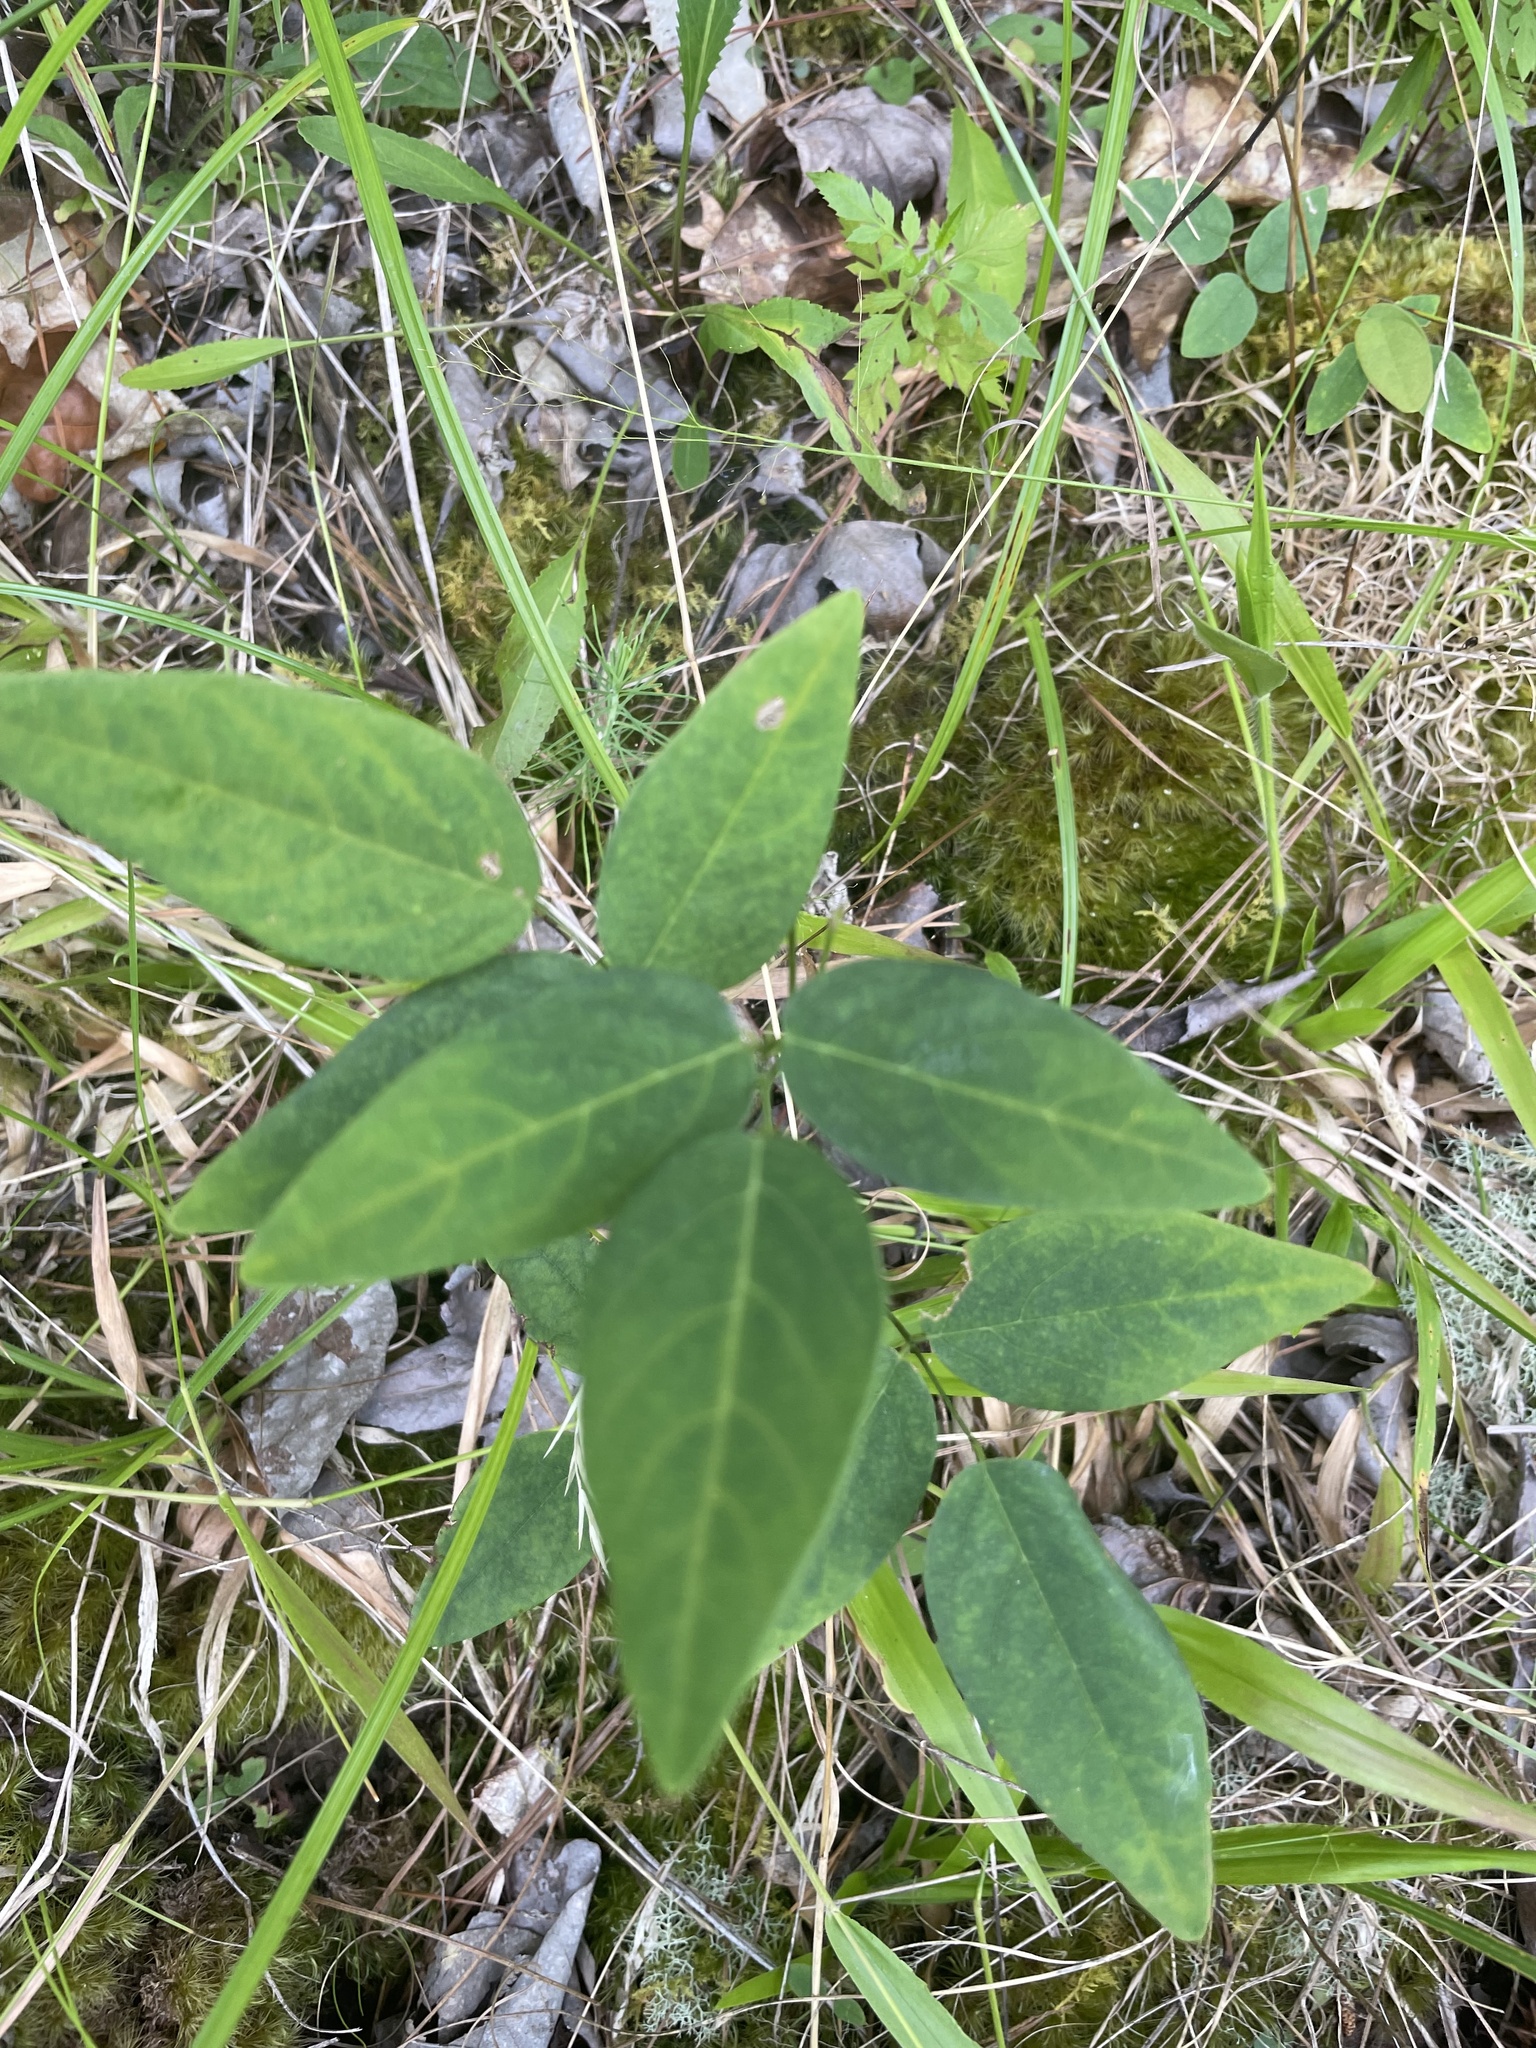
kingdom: Plantae
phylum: Tracheophyta
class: Magnoliopsida
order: Fabales
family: Fabaceae
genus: Clitoria
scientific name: Clitoria mariana
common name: Butterfly-pea
